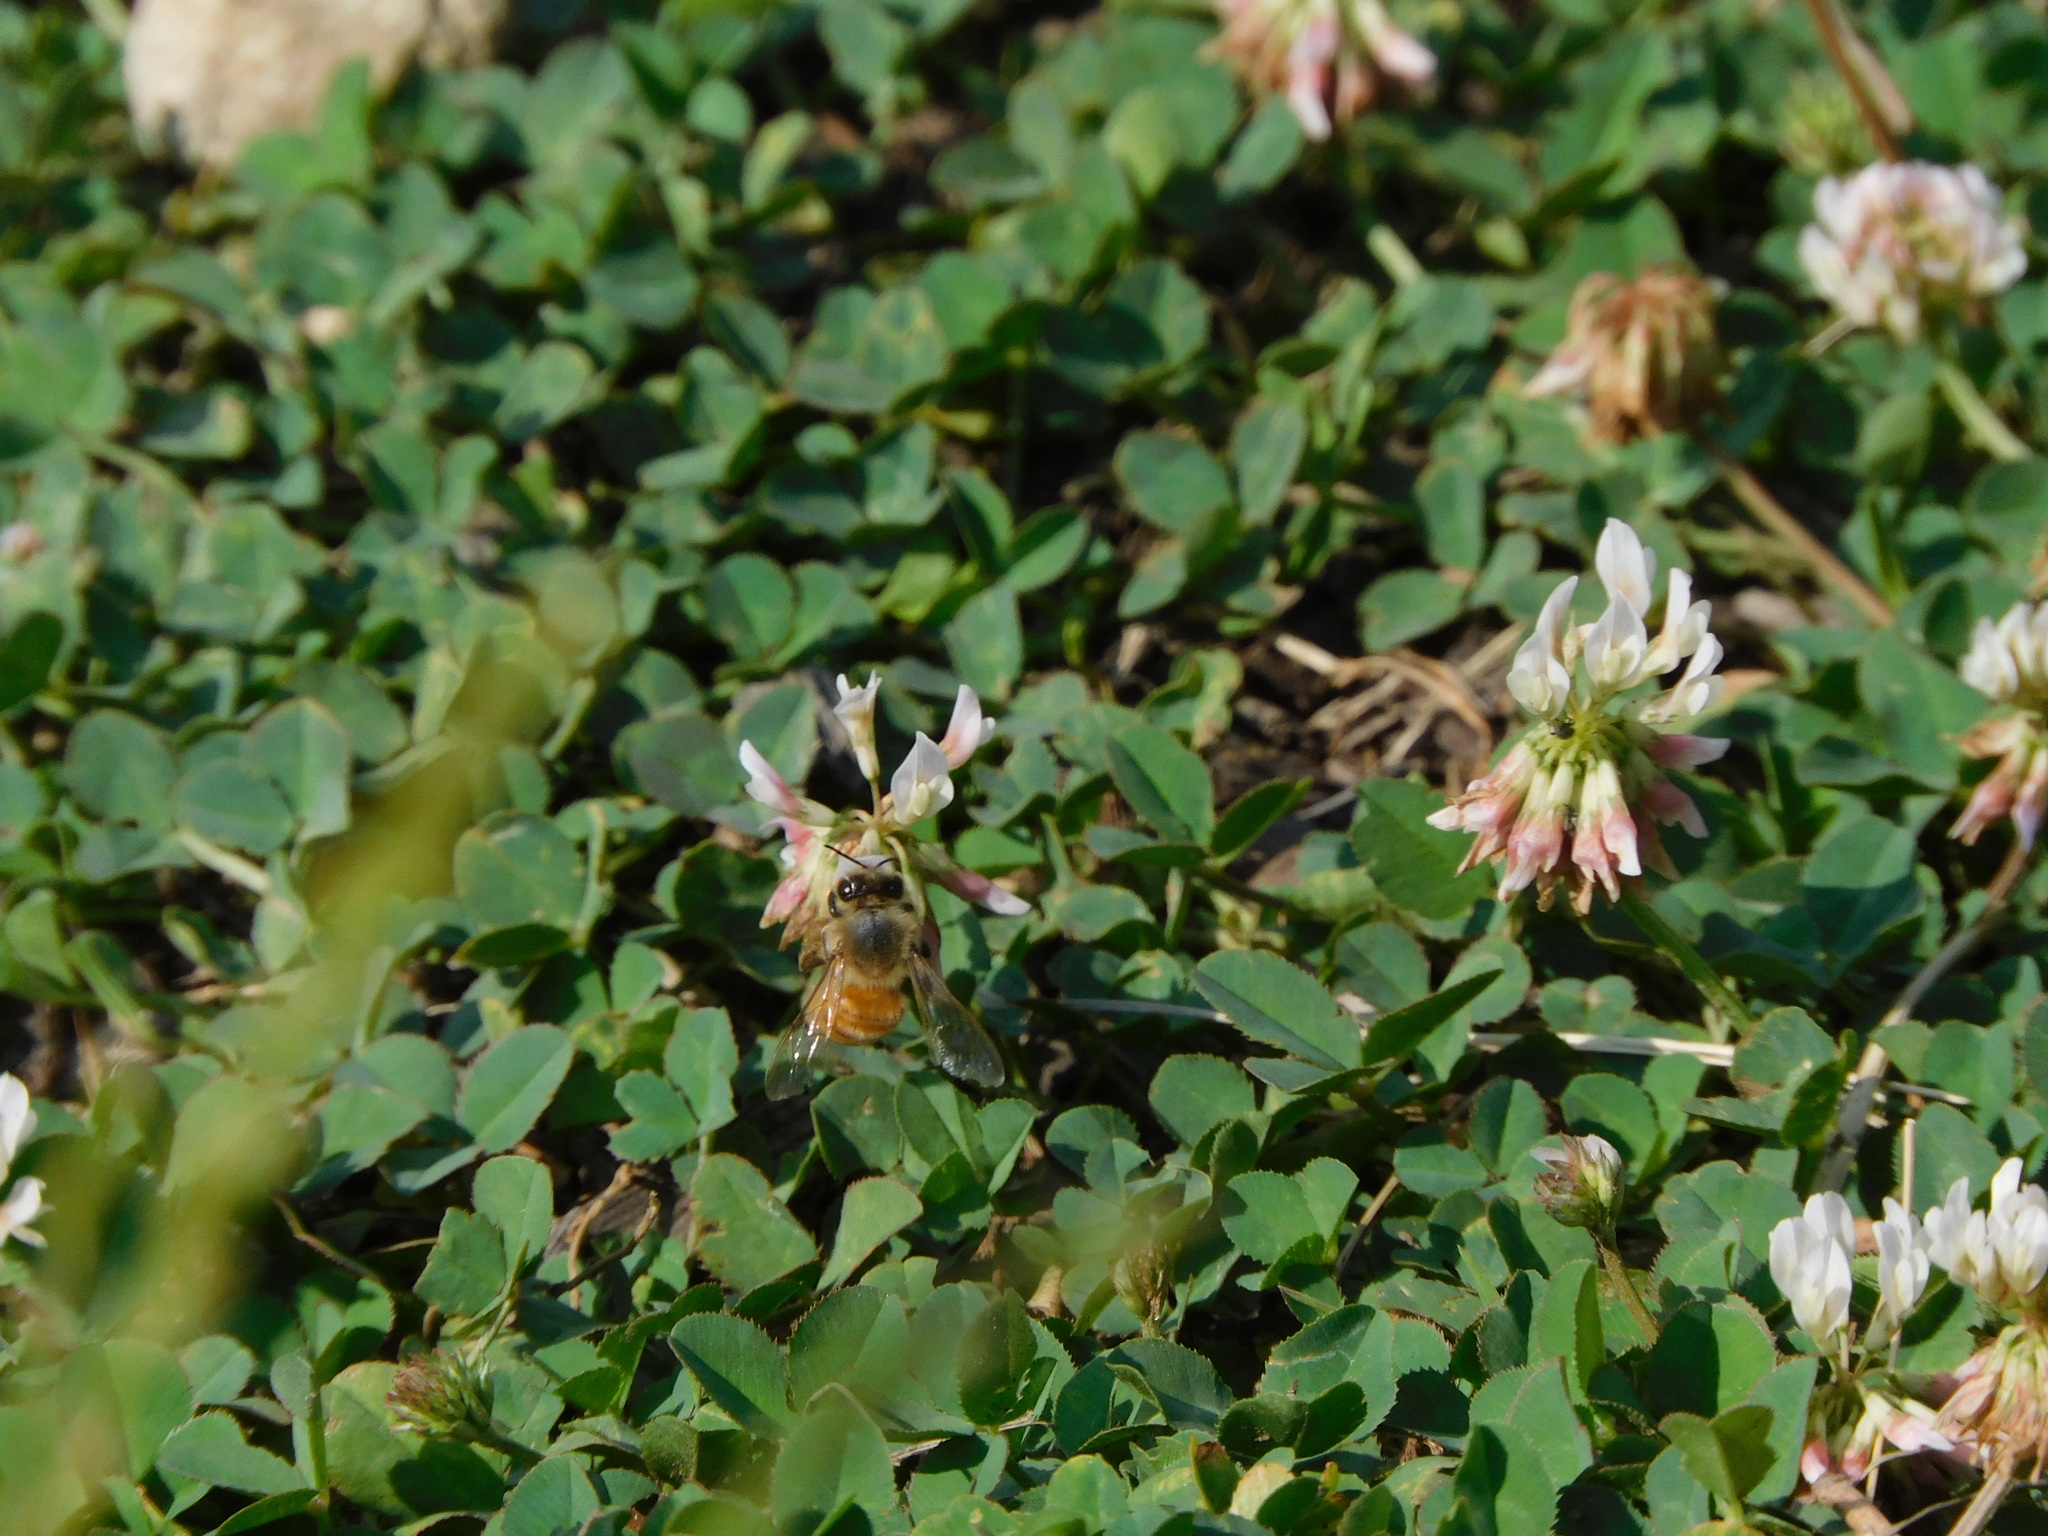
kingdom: Animalia
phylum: Arthropoda
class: Insecta
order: Hymenoptera
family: Apidae
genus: Apis
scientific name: Apis mellifera
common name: Honey bee
